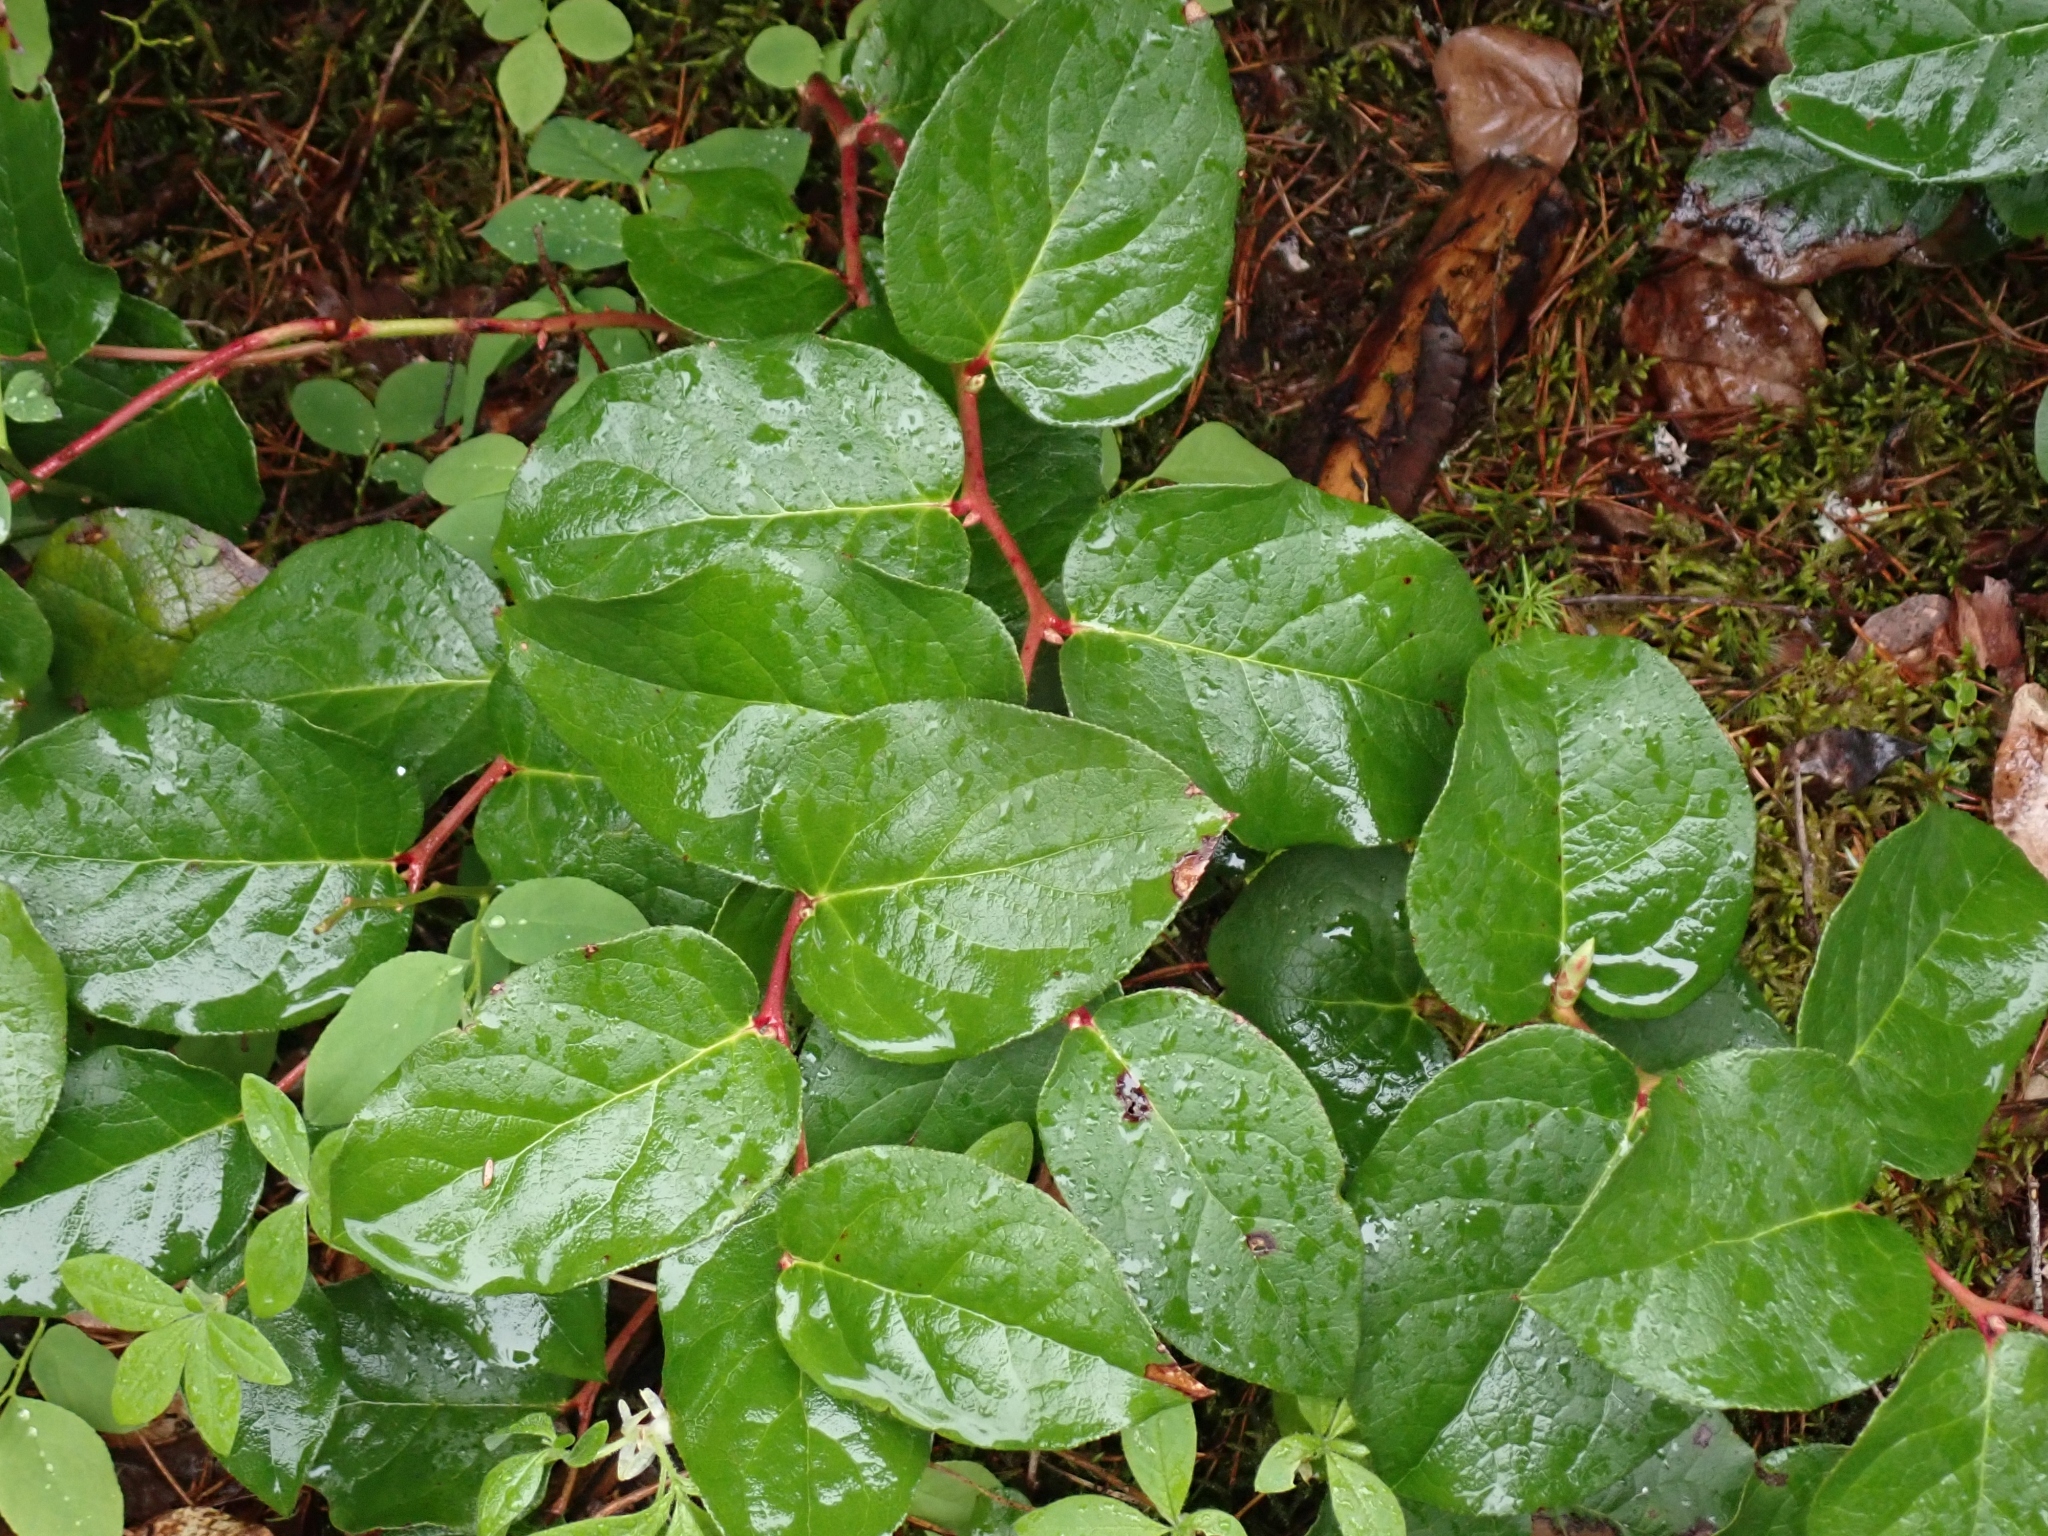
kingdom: Plantae
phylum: Tracheophyta
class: Magnoliopsida
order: Ericales
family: Ericaceae
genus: Gaultheria
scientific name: Gaultheria shallon
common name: Shallon
